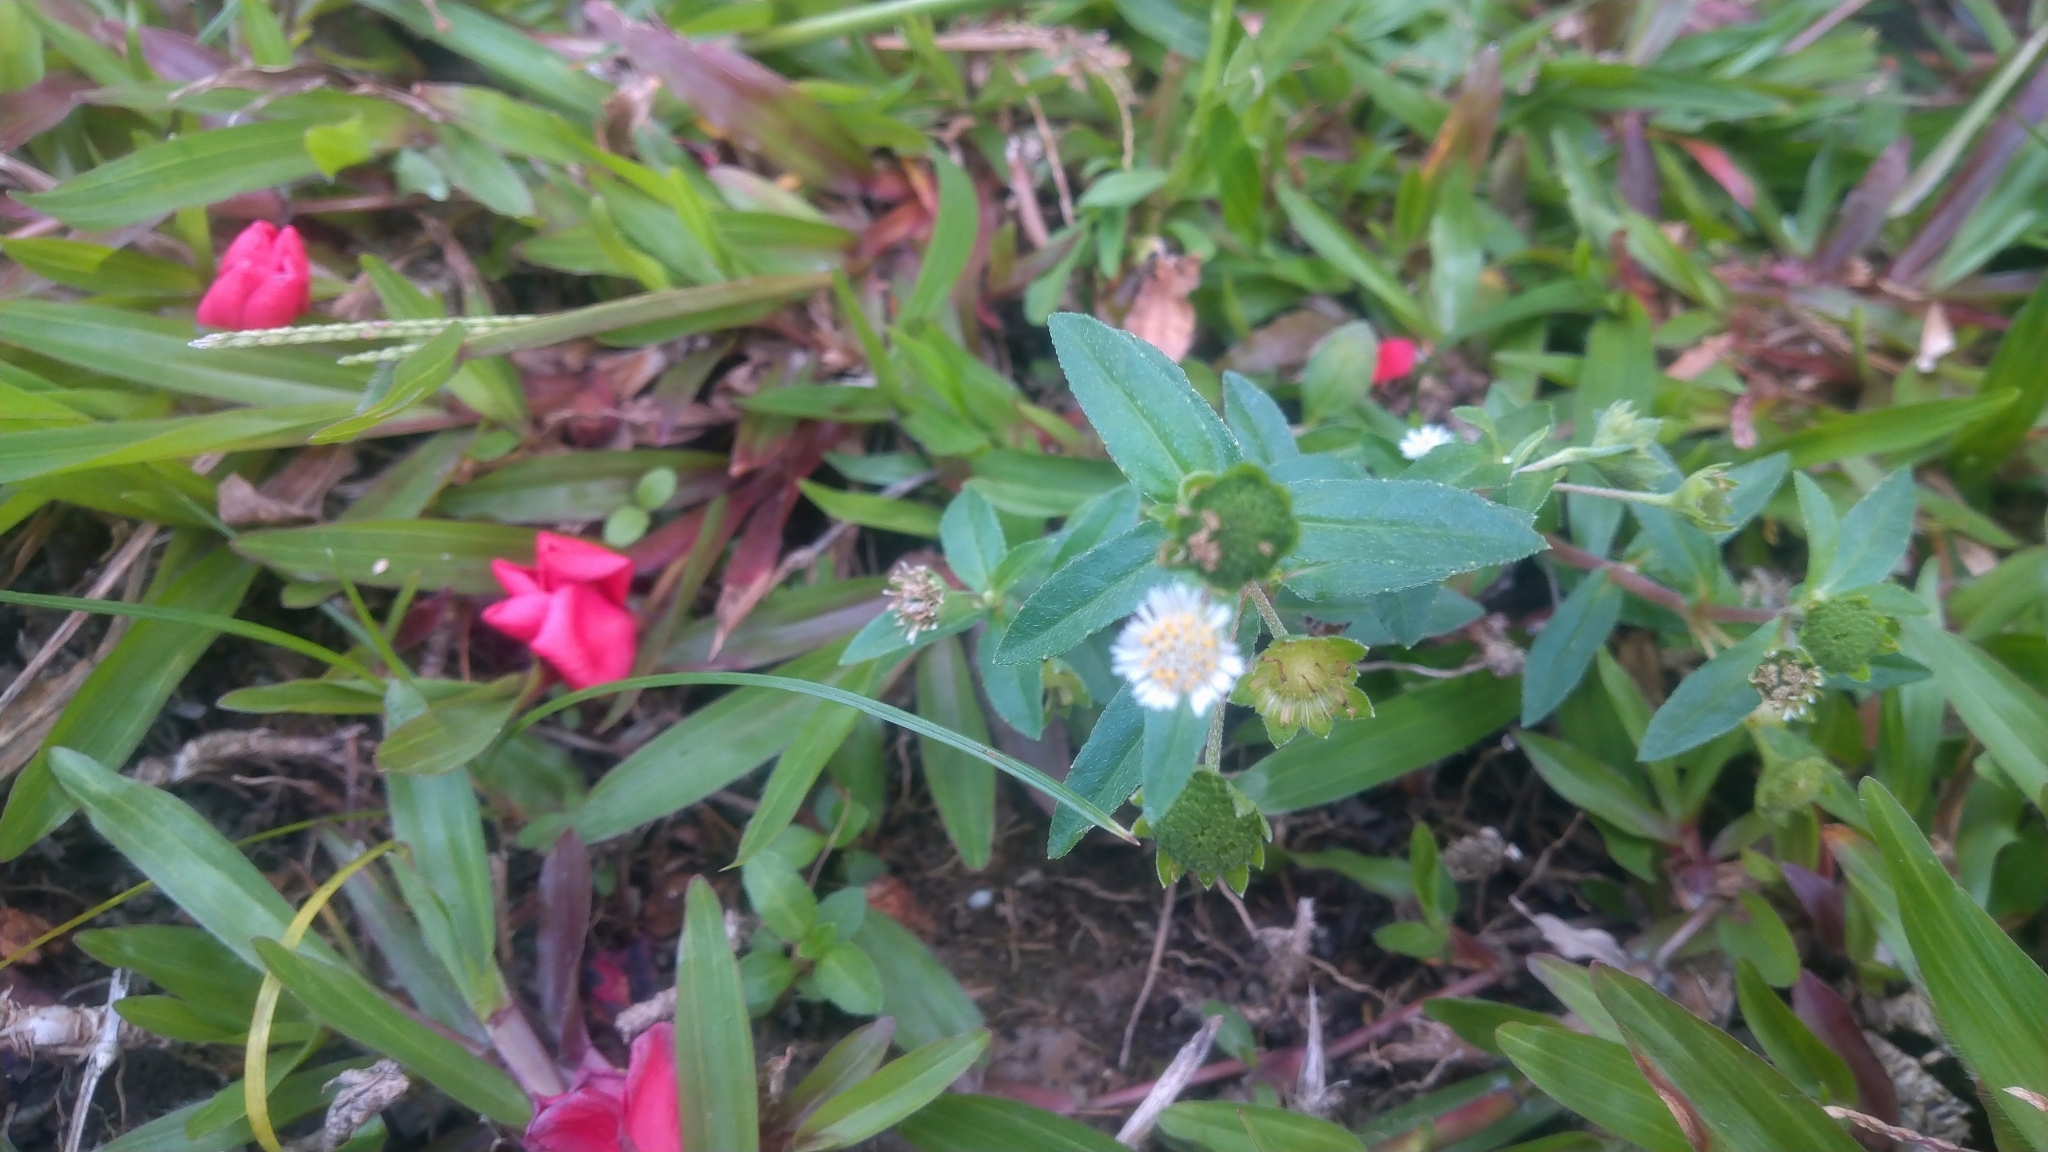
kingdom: Plantae
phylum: Tracheophyta
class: Magnoliopsida
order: Asterales
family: Asteraceae
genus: Eclipta
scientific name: Eclipta prostrata
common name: False daisy
